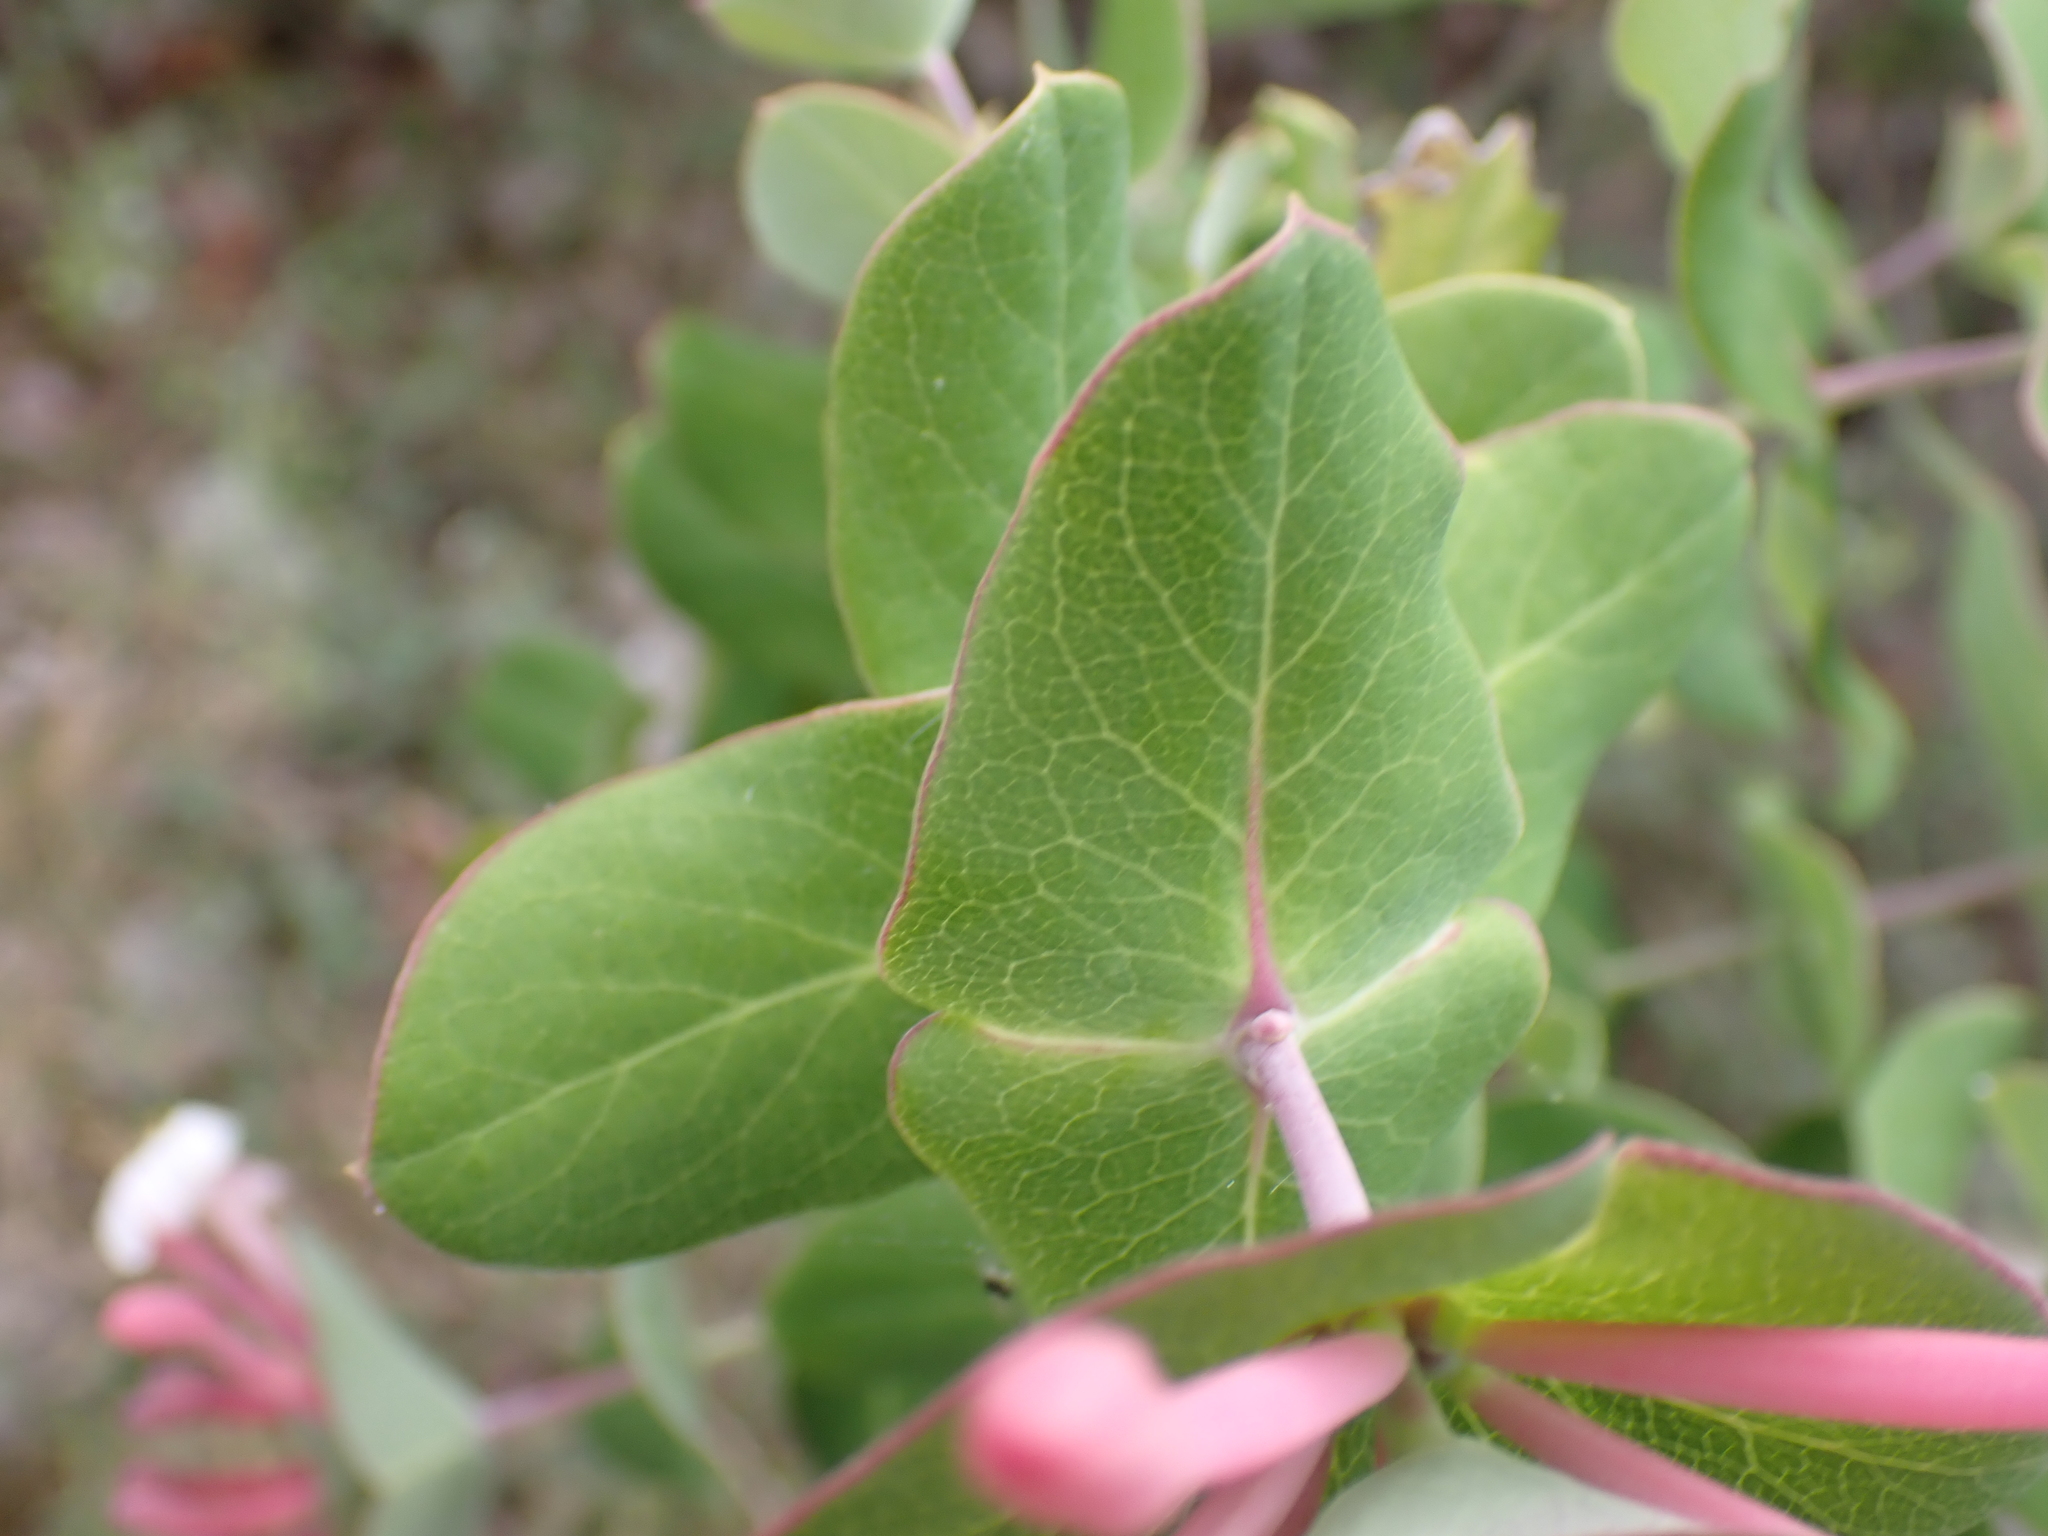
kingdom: Plantae
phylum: Tracheophyta
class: Magnoliopsida
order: Dipsacales
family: Caprifoliaceae
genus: Lonicera
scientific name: Lonicera implexa
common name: Minorca honeysuckle
